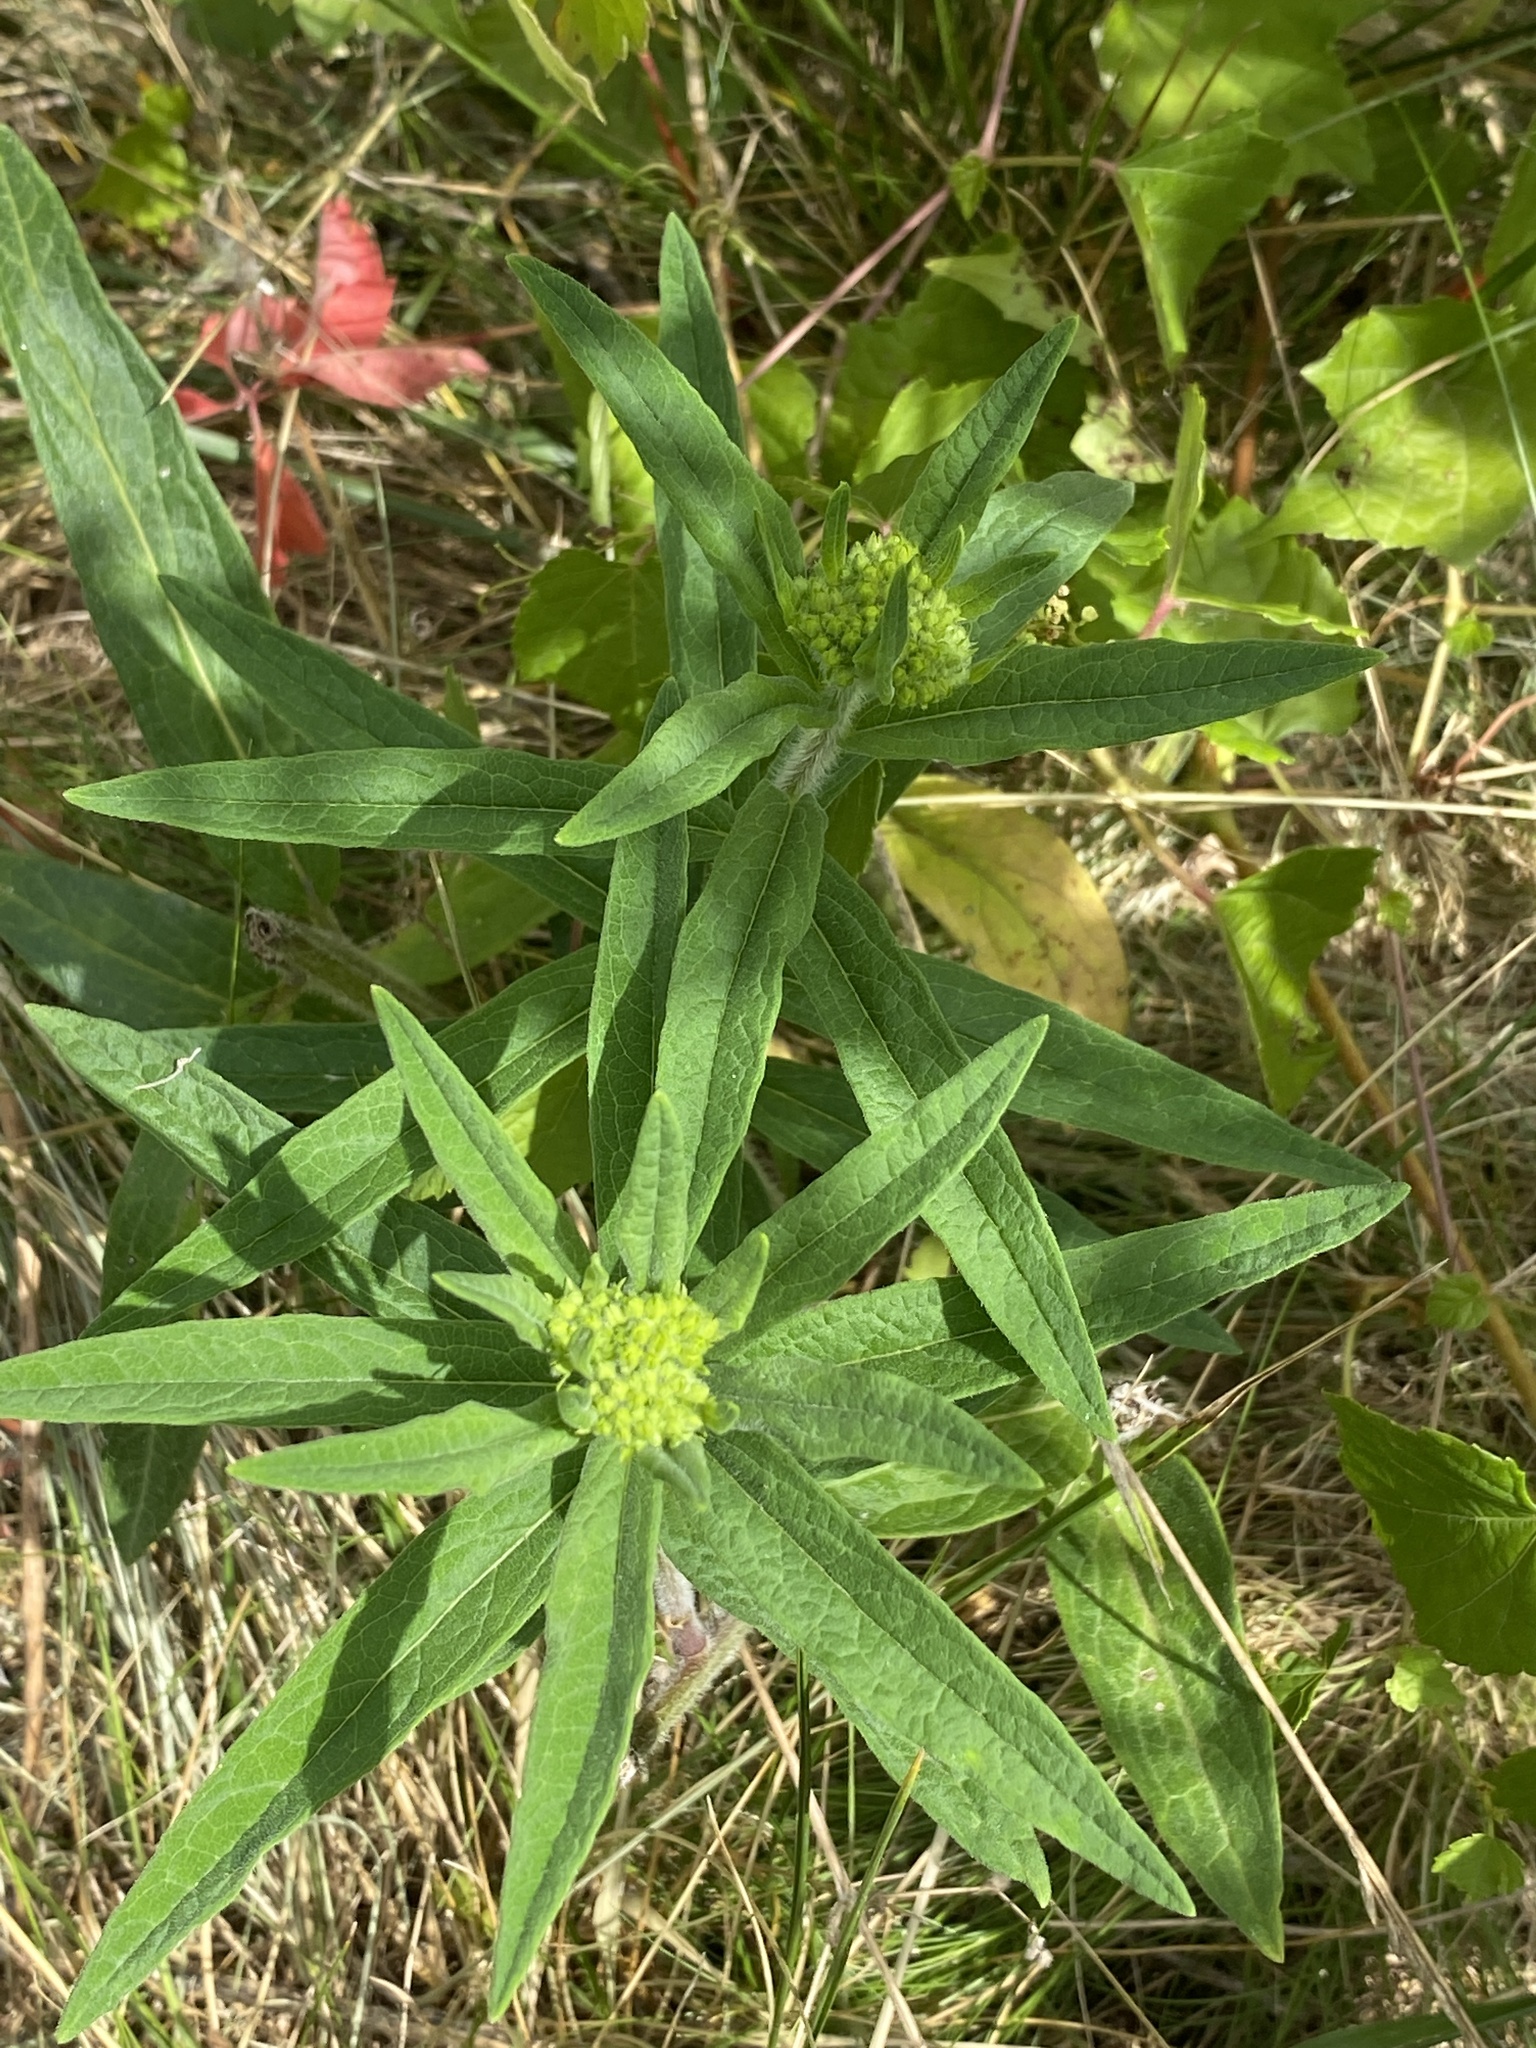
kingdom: Plantae
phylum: Tracheophyta
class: Magnoliopsida
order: Gentianales
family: Apocynaceae
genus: Asclepias
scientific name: Asclepias tuberosa
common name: Butterfly milkweed
